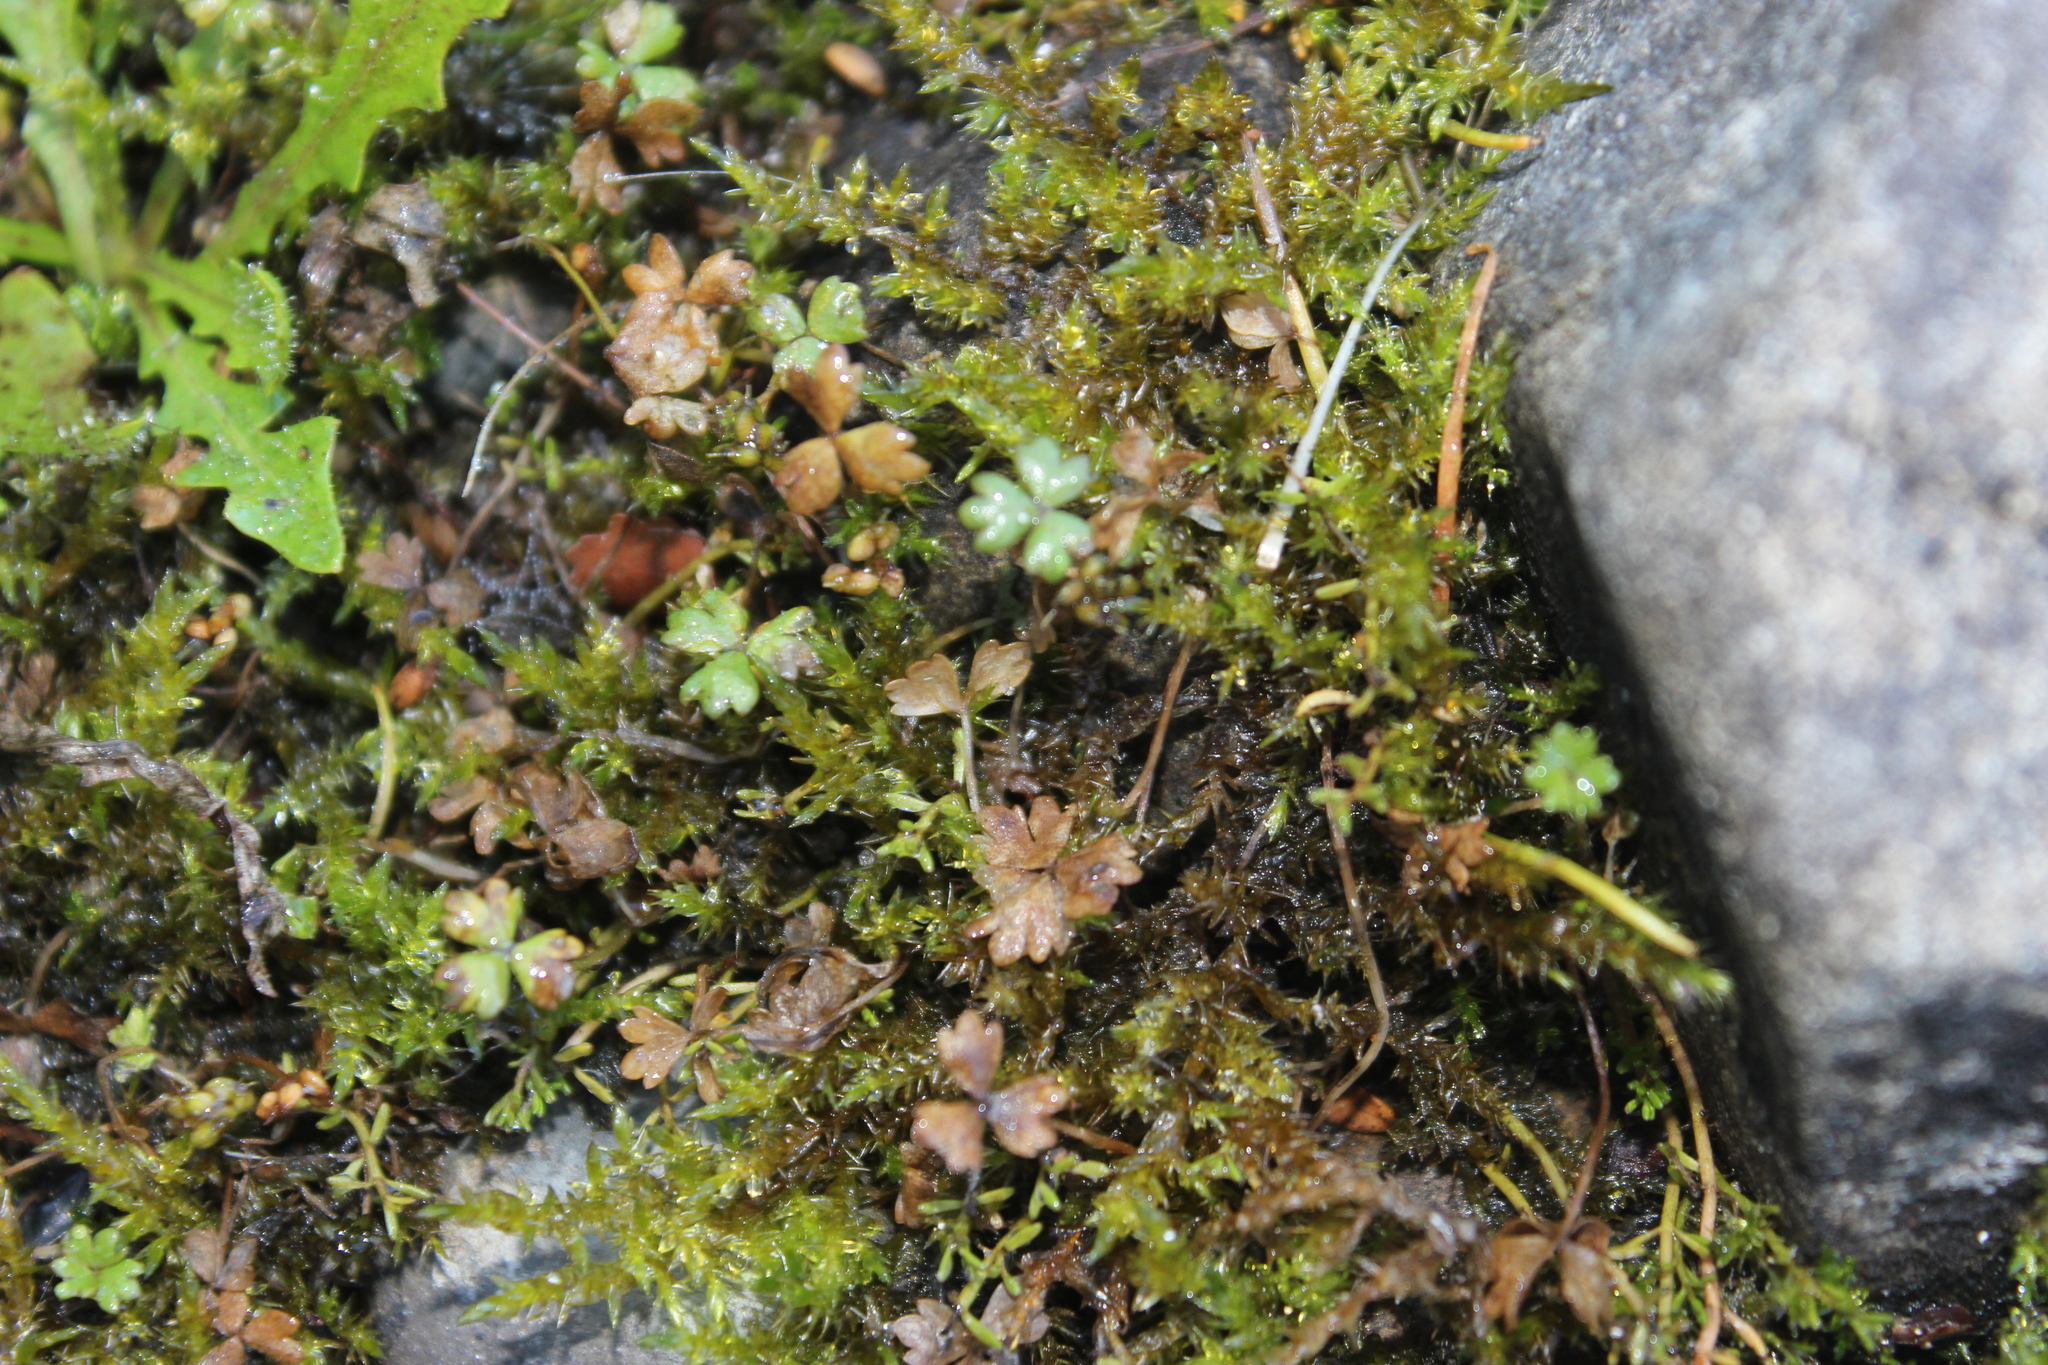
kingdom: Plantae
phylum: Tracheophyta
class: Magnoliopsida
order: Apiales
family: Araliaceae
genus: Hydrocotyle
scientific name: Hydrocotyle sulcata
